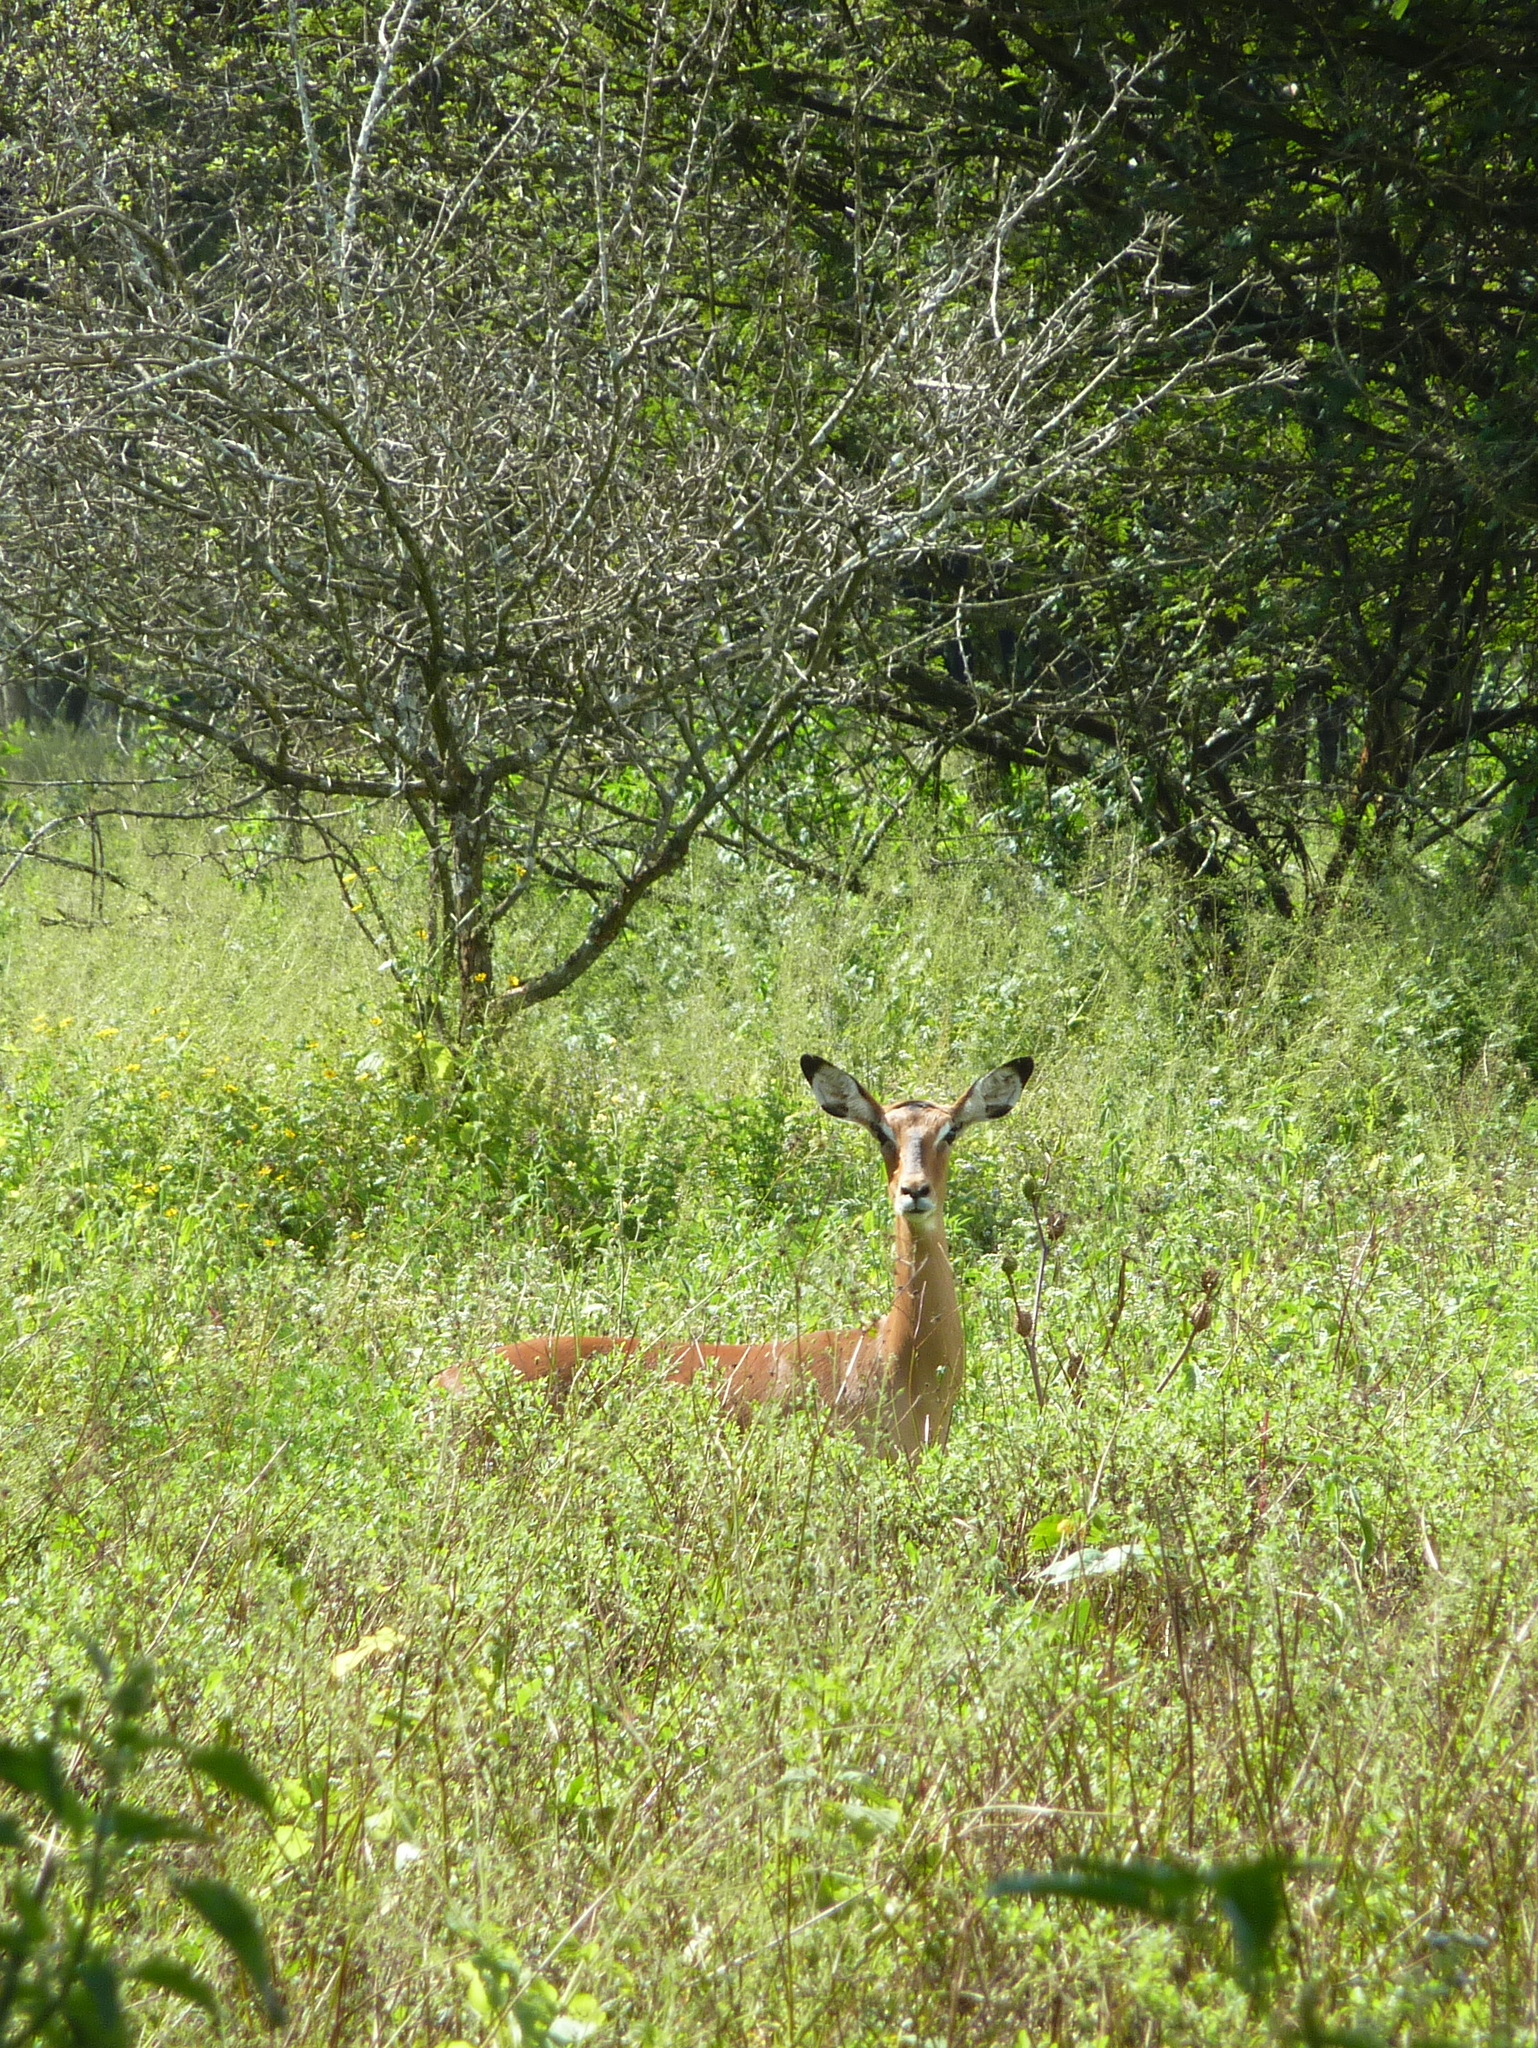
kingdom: Animalia
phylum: Chordata
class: Mammalia
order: Artiodactyla
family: Bovidae
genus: Aepyceros
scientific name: Aepyceros melampus
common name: Impala
